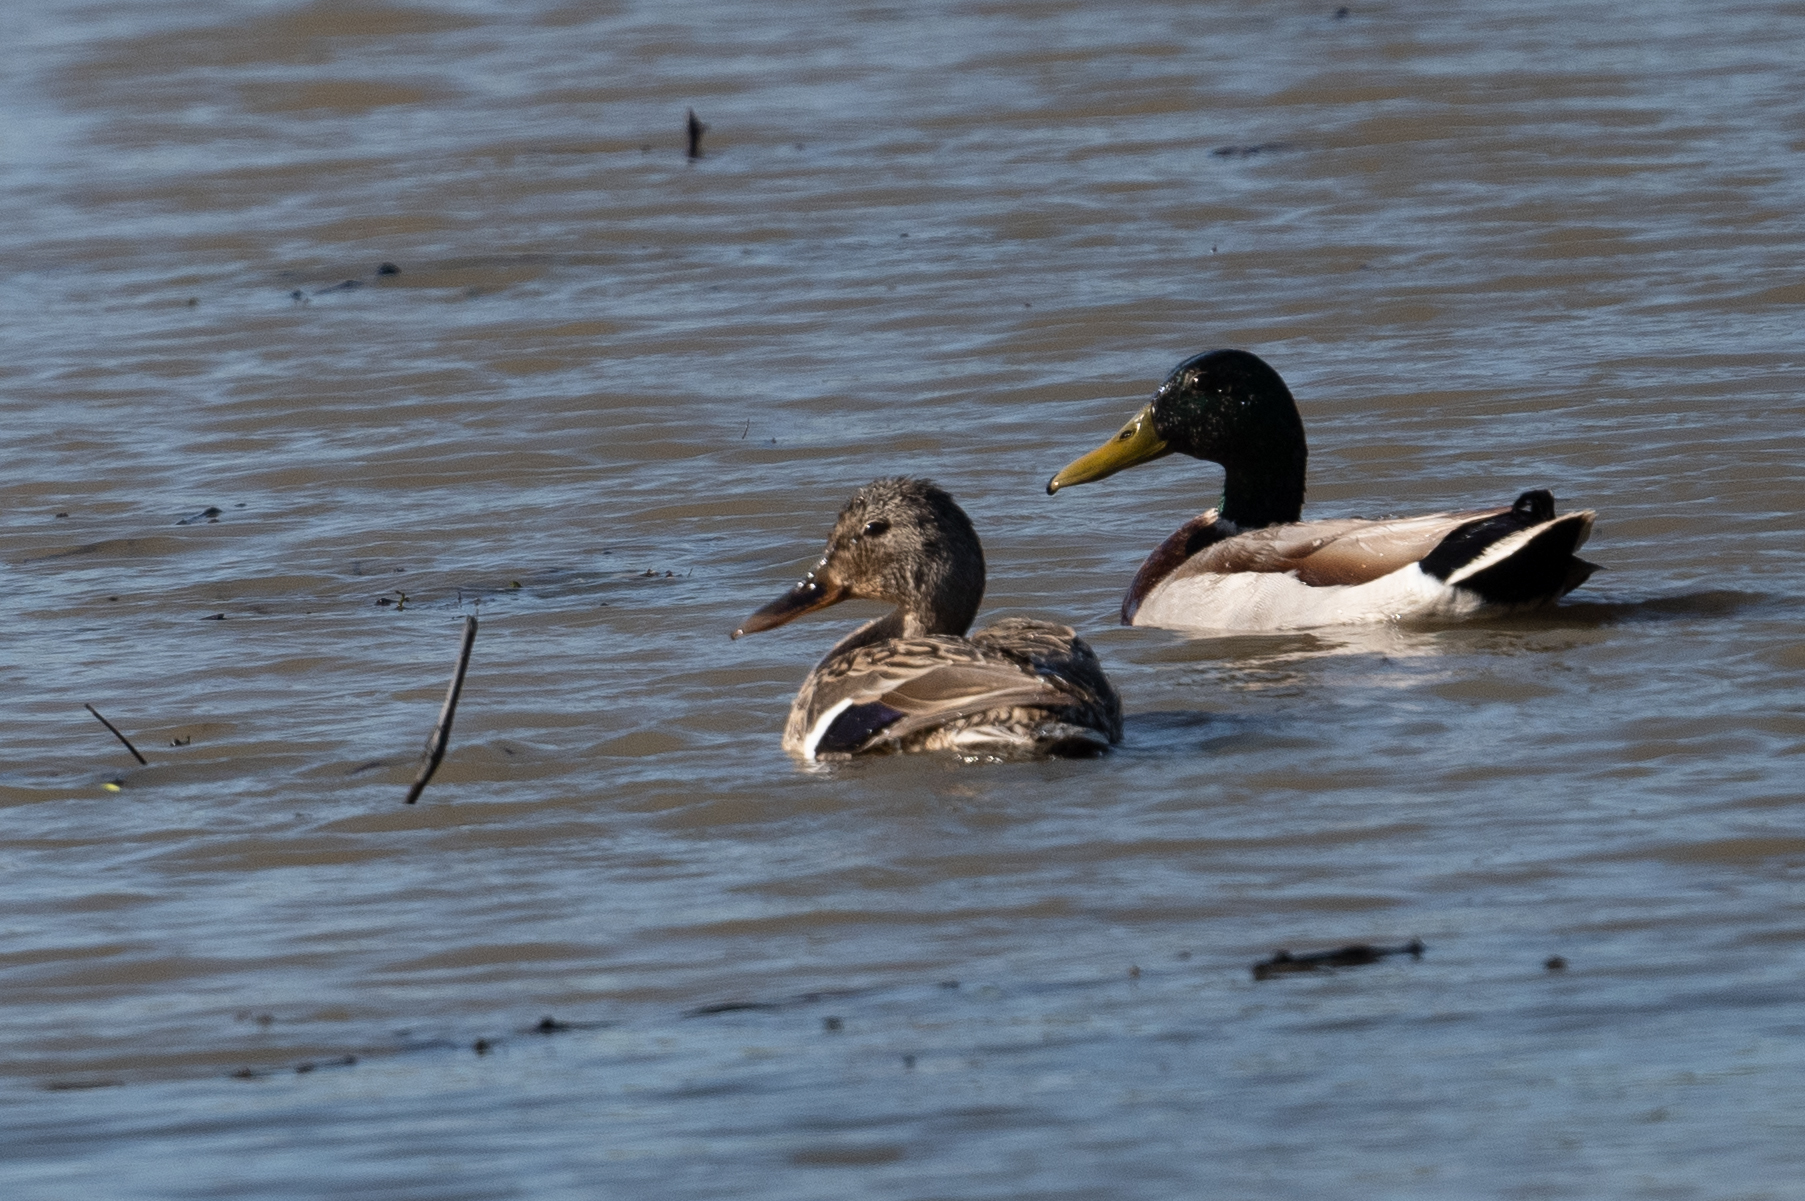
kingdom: Animalia
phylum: Chordata
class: Aves
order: Anseriformes
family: Anatidae
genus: Anas
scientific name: Anas platyrhynchos
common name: Mallard
